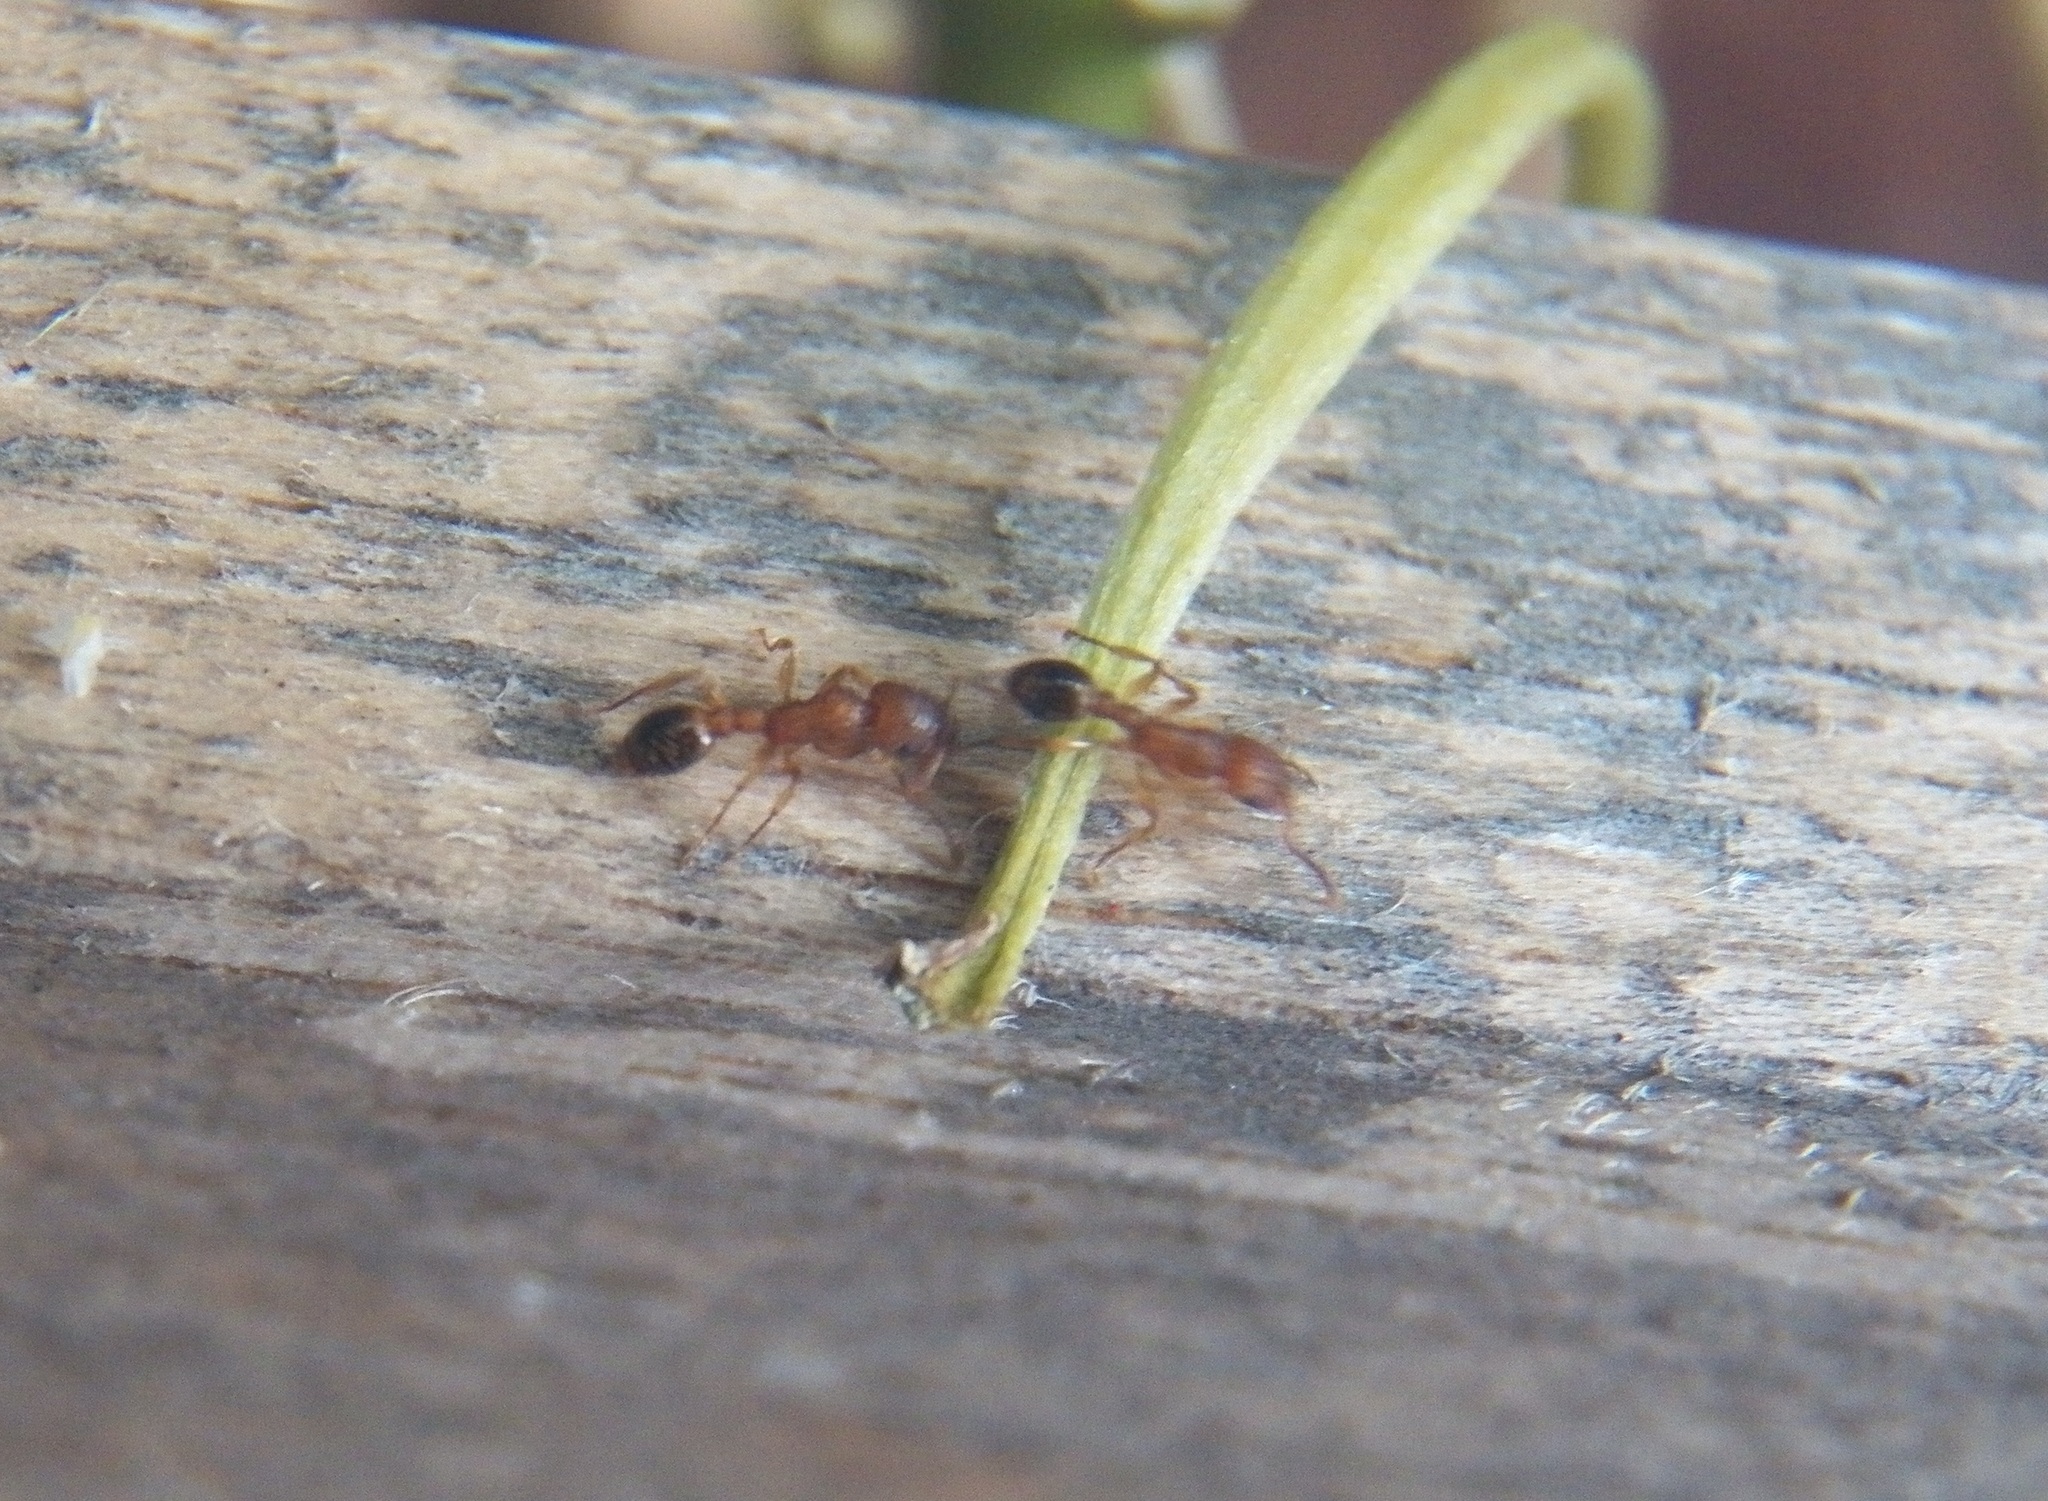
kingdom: Animalia
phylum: Arthropoda
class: Insecta
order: Hymenoptera
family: Formicidae
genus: Tetramorium
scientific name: Tetramorium bicarinatum
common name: Guinea ant
